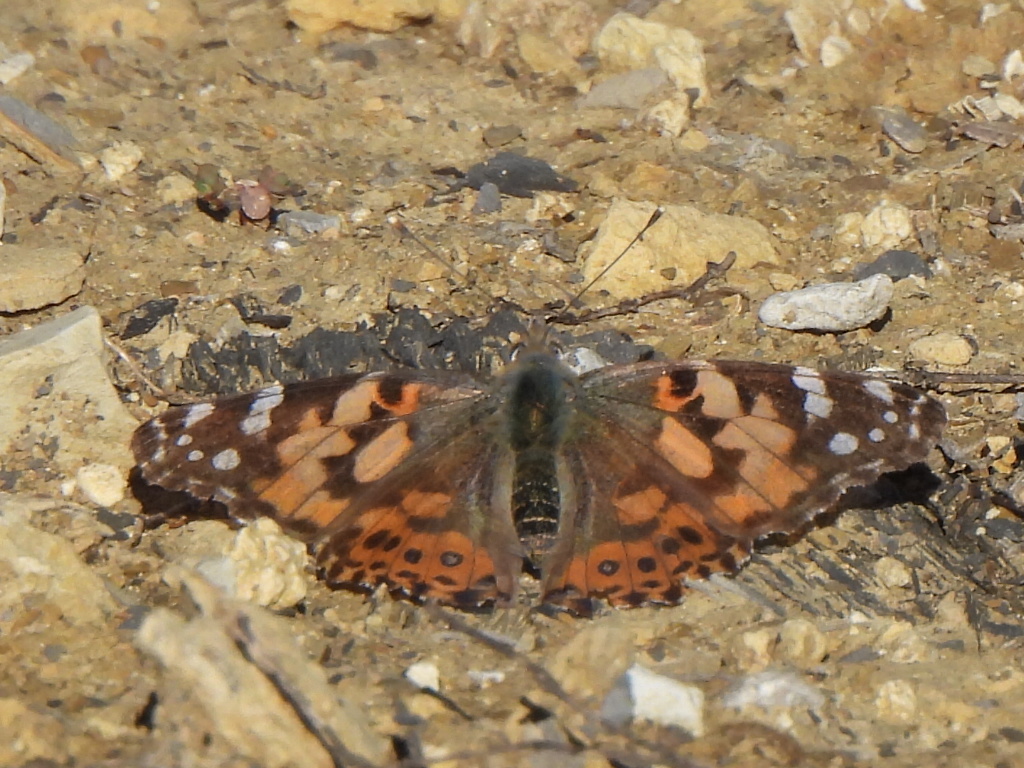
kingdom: Animalia
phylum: Arthropoda
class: Insecta
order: Lepidoptera
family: Nymphalidae
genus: Vanessa
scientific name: Vanessa cardui
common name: Painted lady
